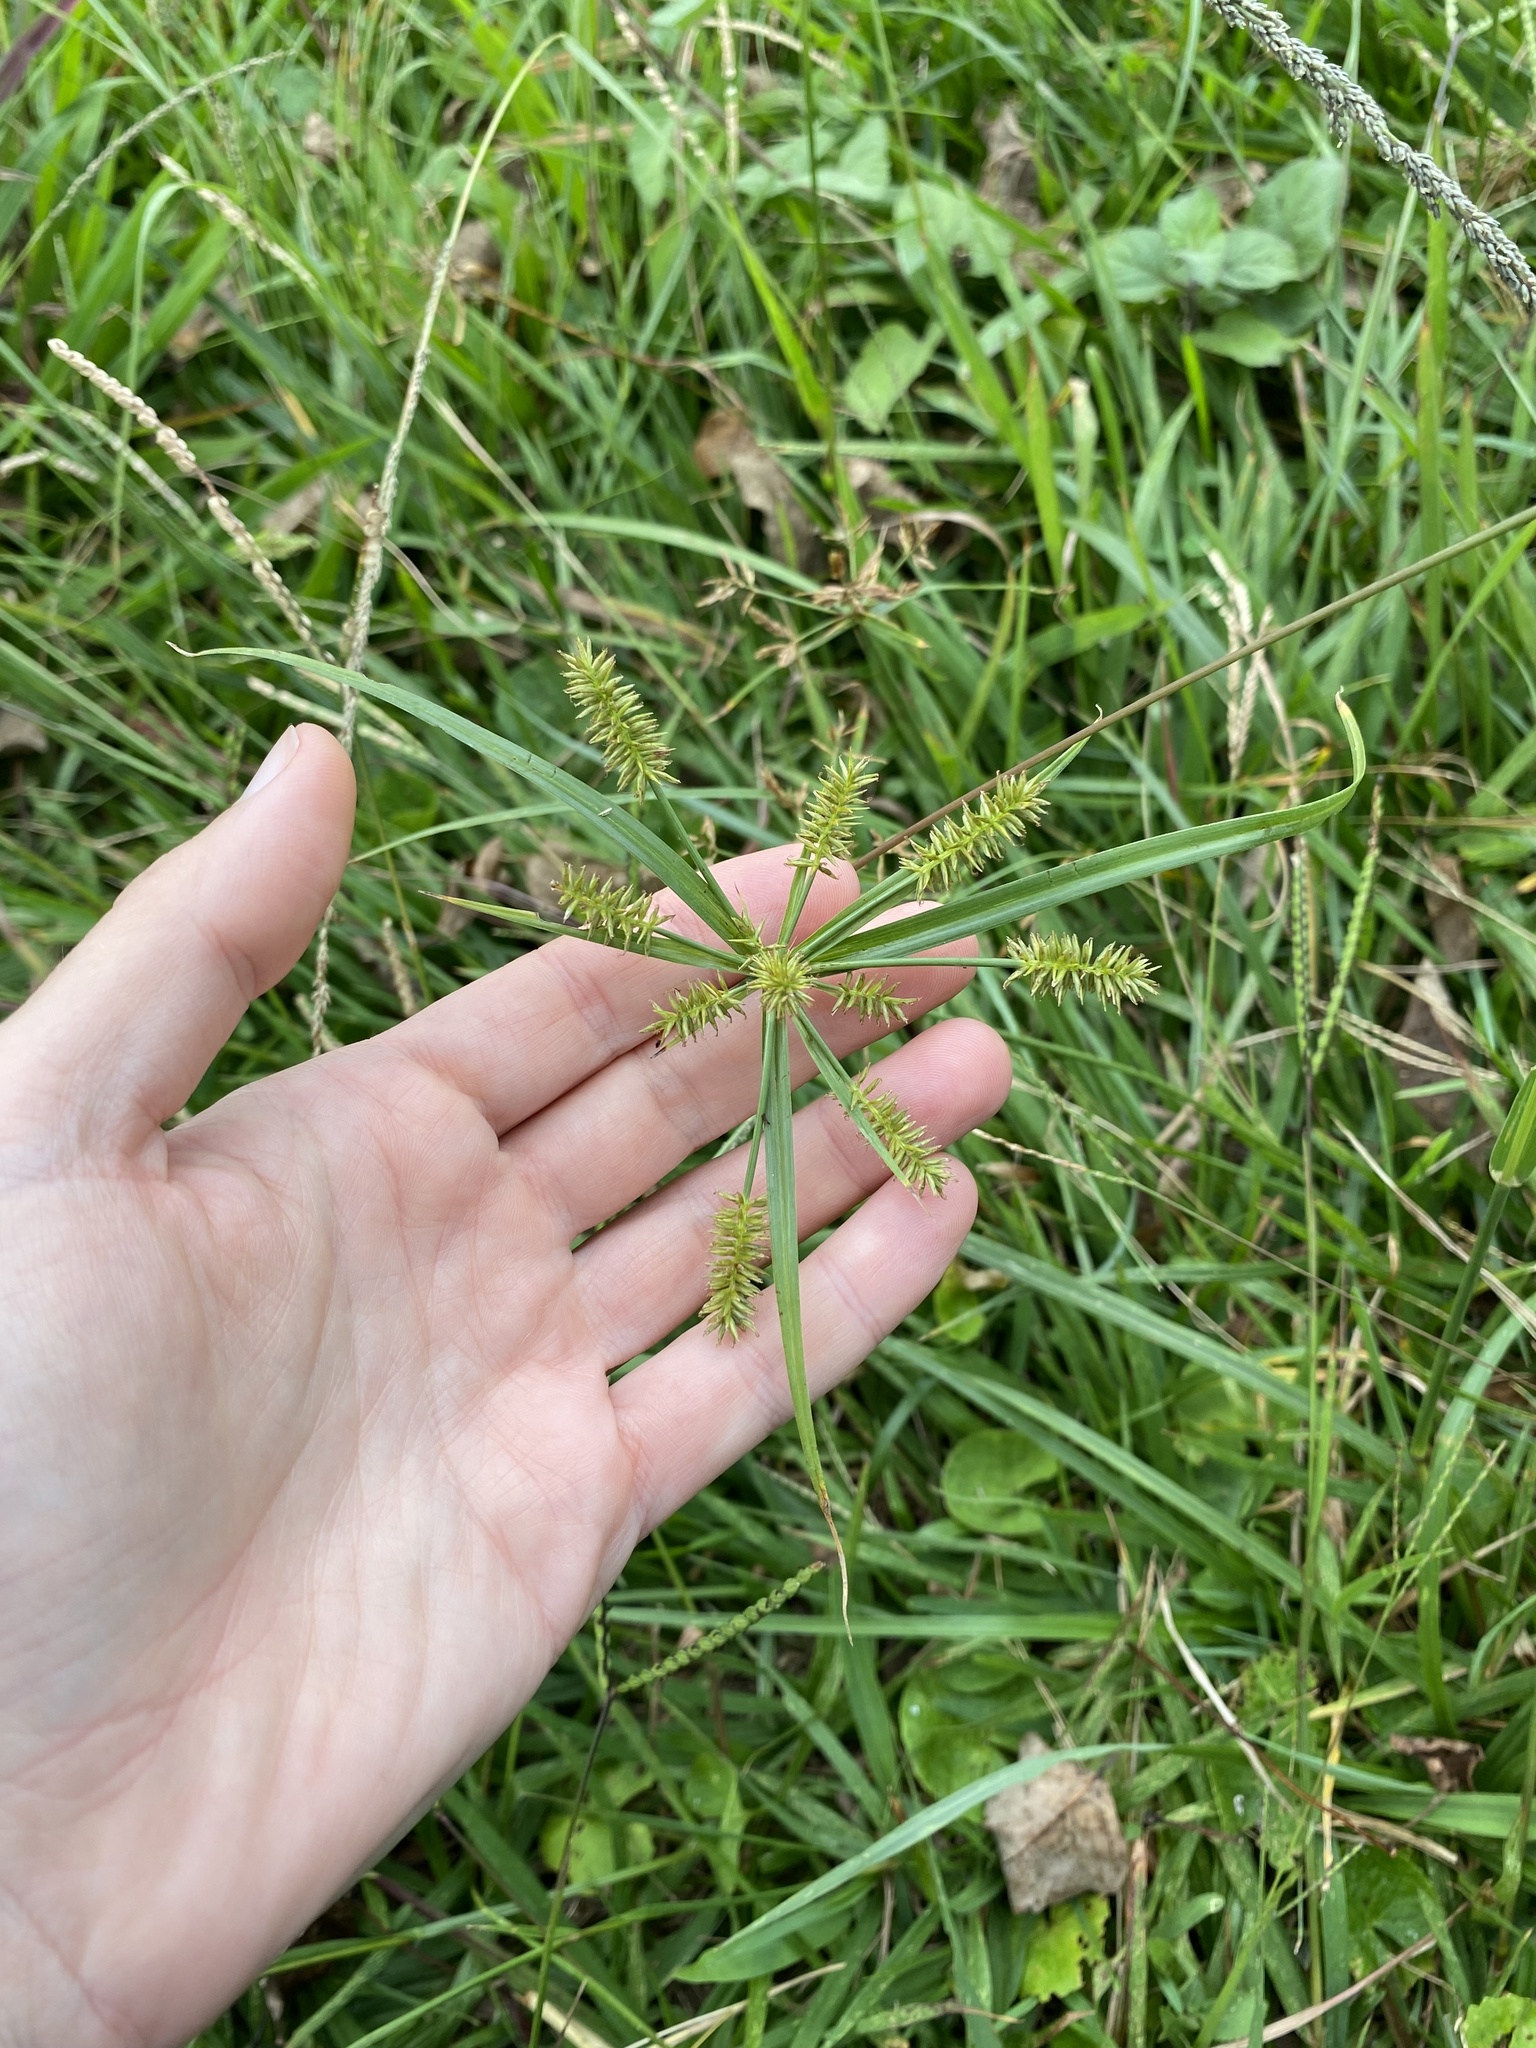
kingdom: Plantae
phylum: Tracheophyta
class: Liliopsida
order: Poales
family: Cyperaceae
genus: Cyperus
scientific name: Cyperus cyperoides
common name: Pacific island flat sedge
